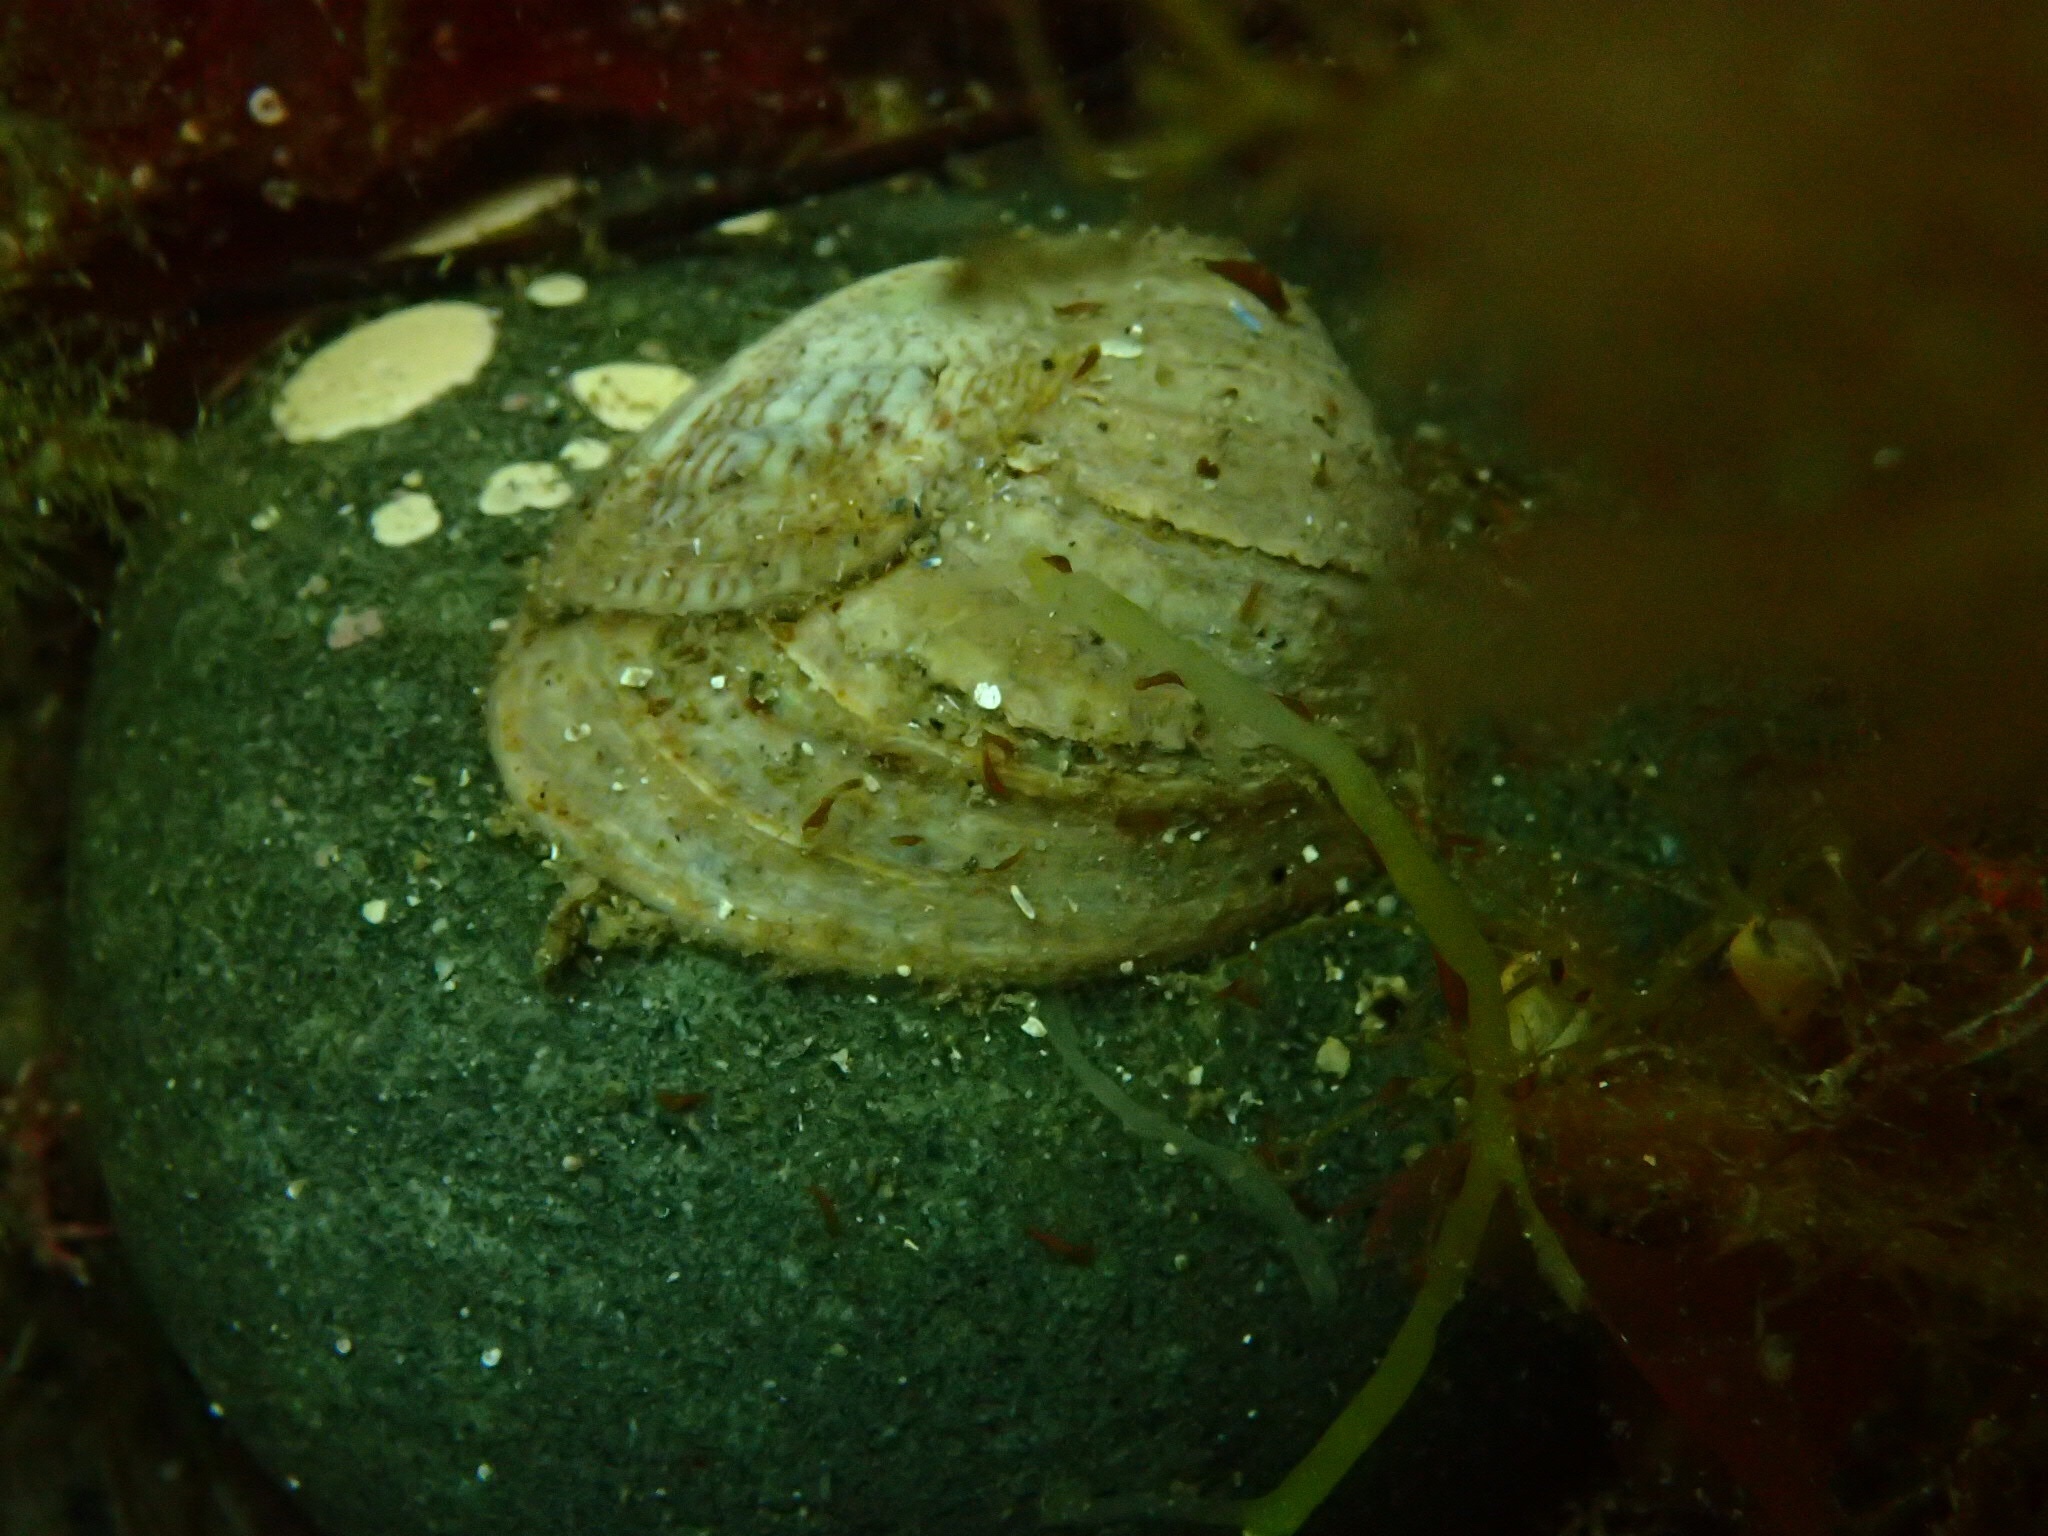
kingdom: Animalia
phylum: Mollusca
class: Gastropoda
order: Littorinimorpha
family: Calyptraeidae
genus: Crepidula
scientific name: Crepidula fornicata
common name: Slipper limpet
